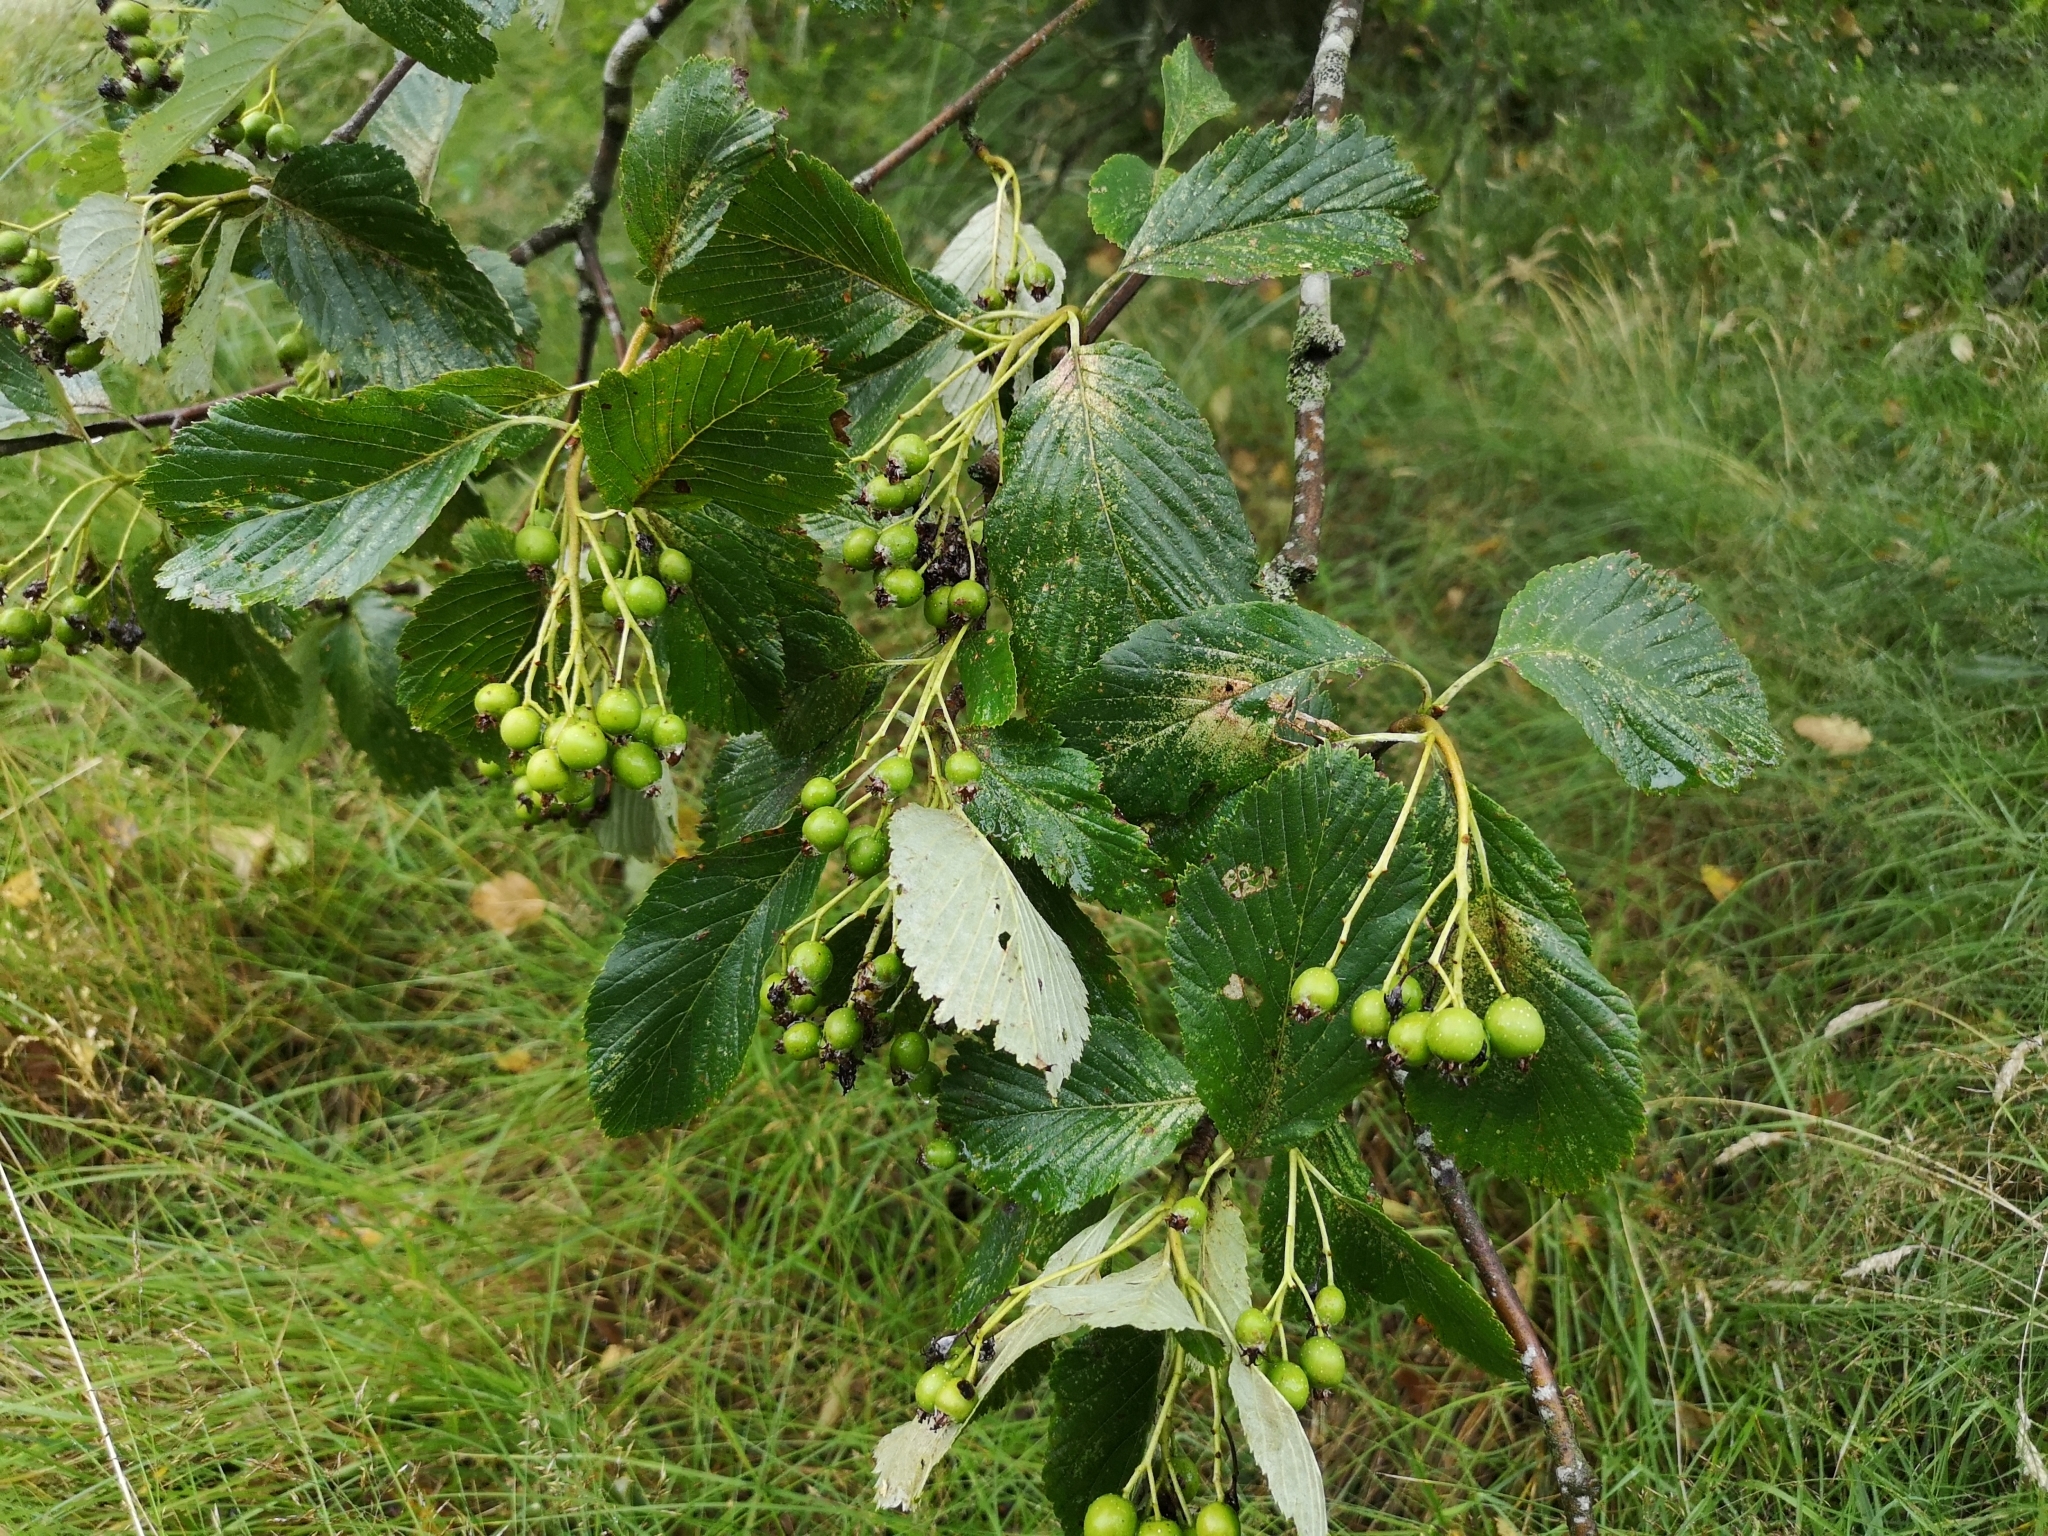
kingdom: Plantae
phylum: Tracheophyta
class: Magnoliopsida
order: Rosales
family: Rosaceae
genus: Aria
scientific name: Aria edulis
